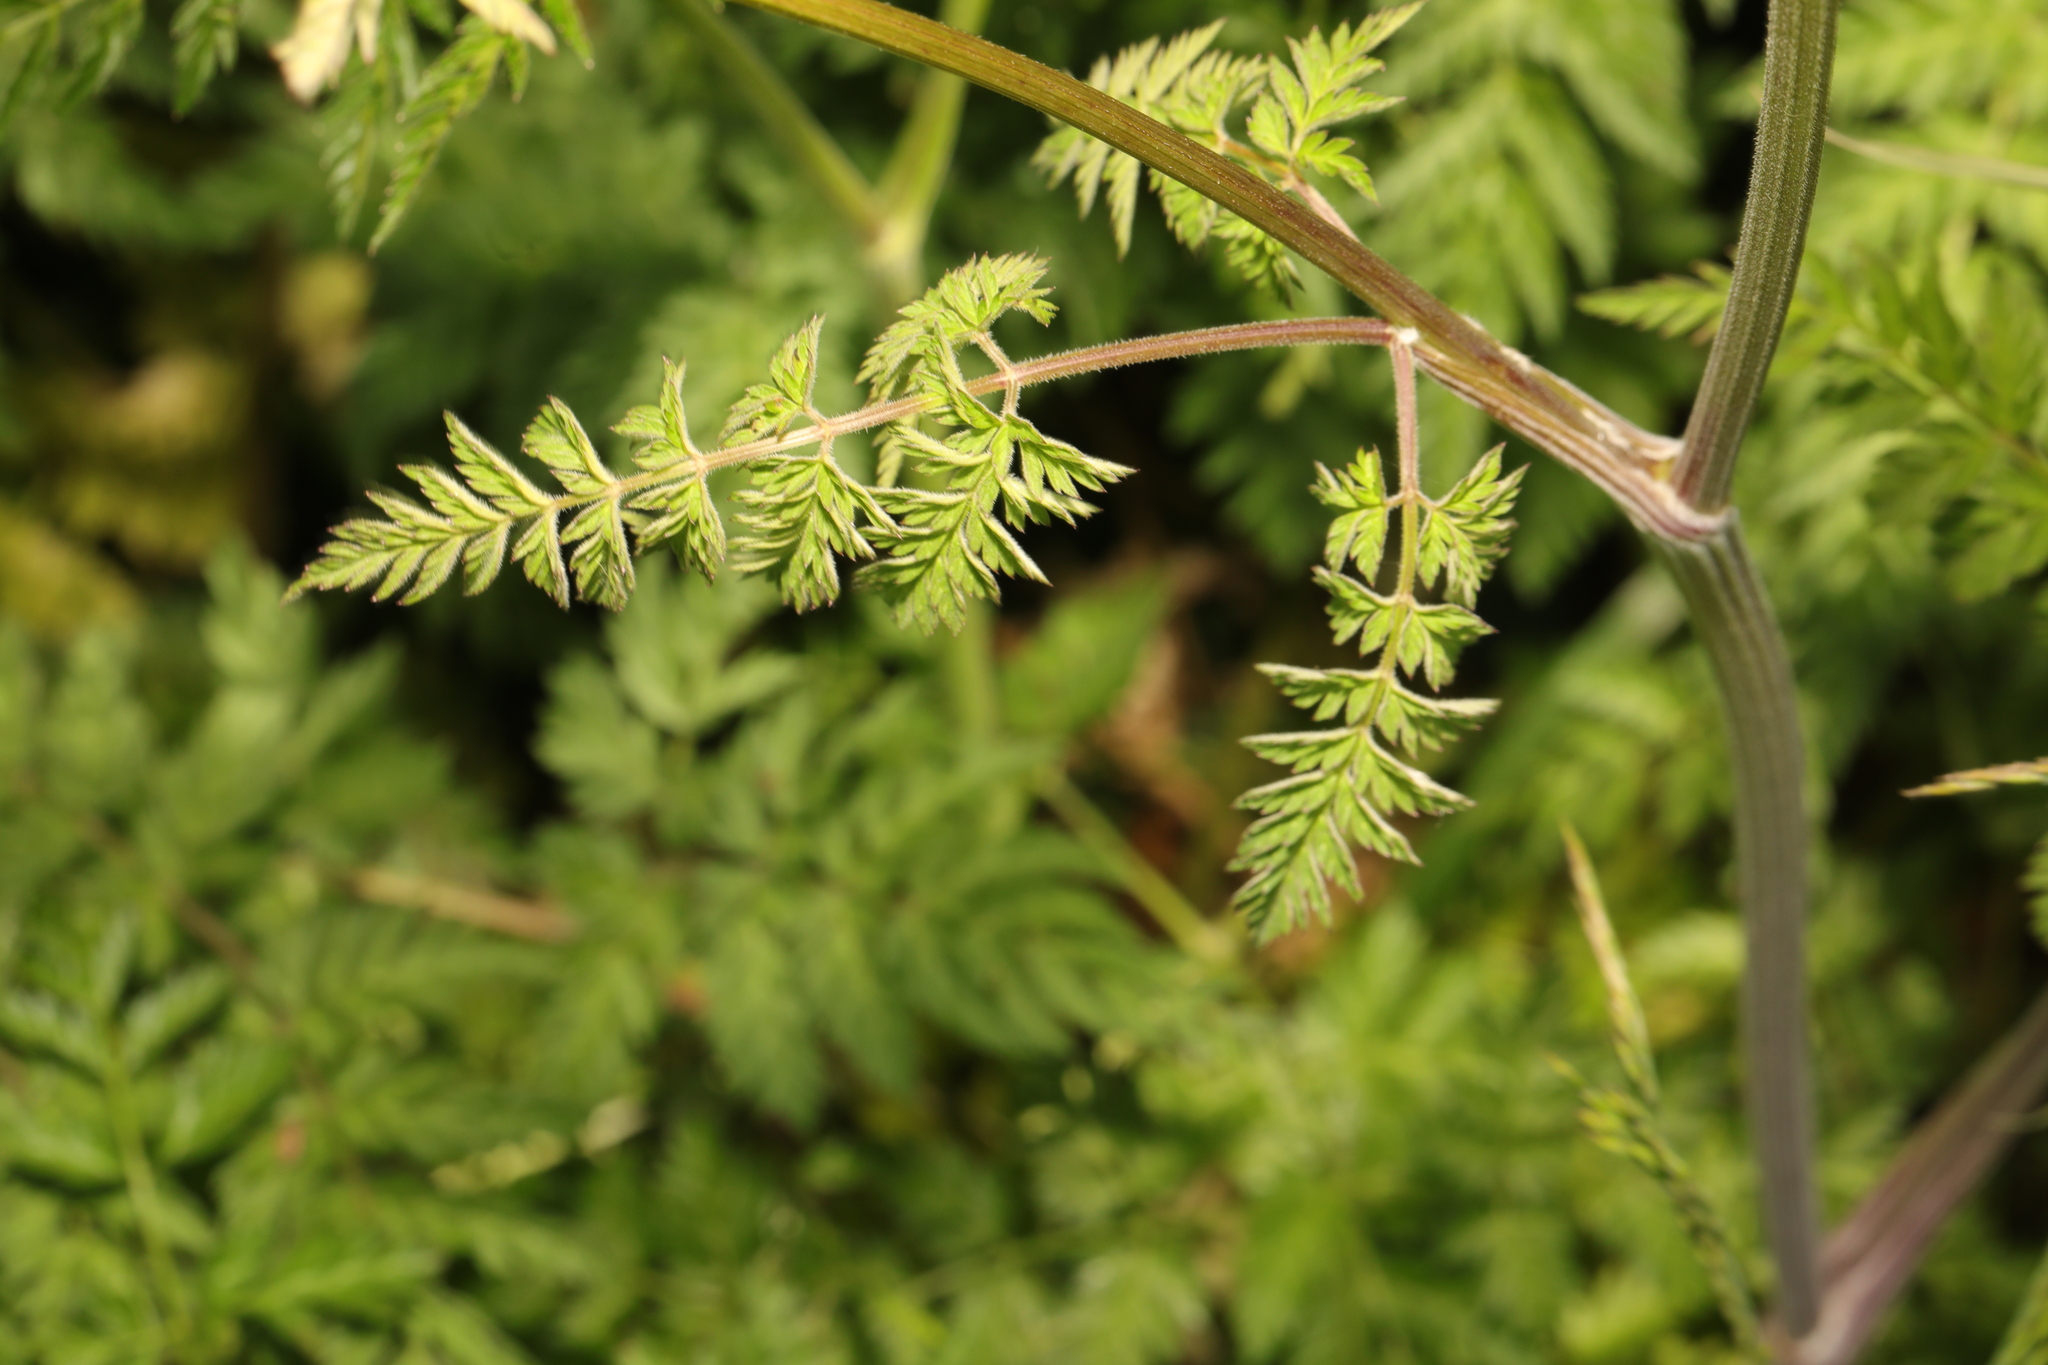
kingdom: Plantae
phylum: Tracheophyta
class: Magnoliopsida
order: Apiales
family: Apiaceae
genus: Anthriscus
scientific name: Anthriscus sylvestris
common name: Cow parsley
